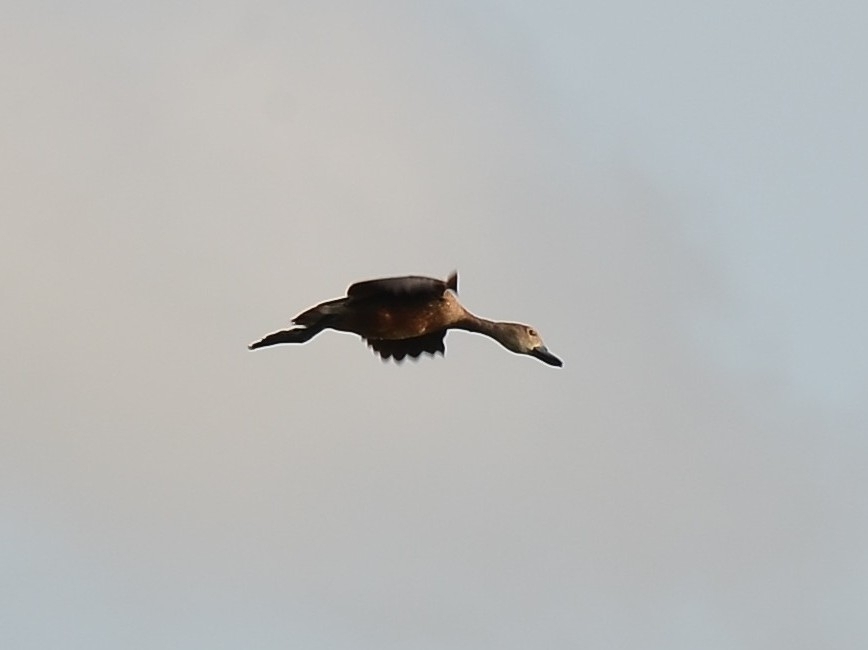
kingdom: Animalia
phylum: Chordata
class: Aves
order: Anseriformes
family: Anatidae
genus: Dendrocygna
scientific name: Dendrocygna javanica
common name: Lesser whistling-duck
